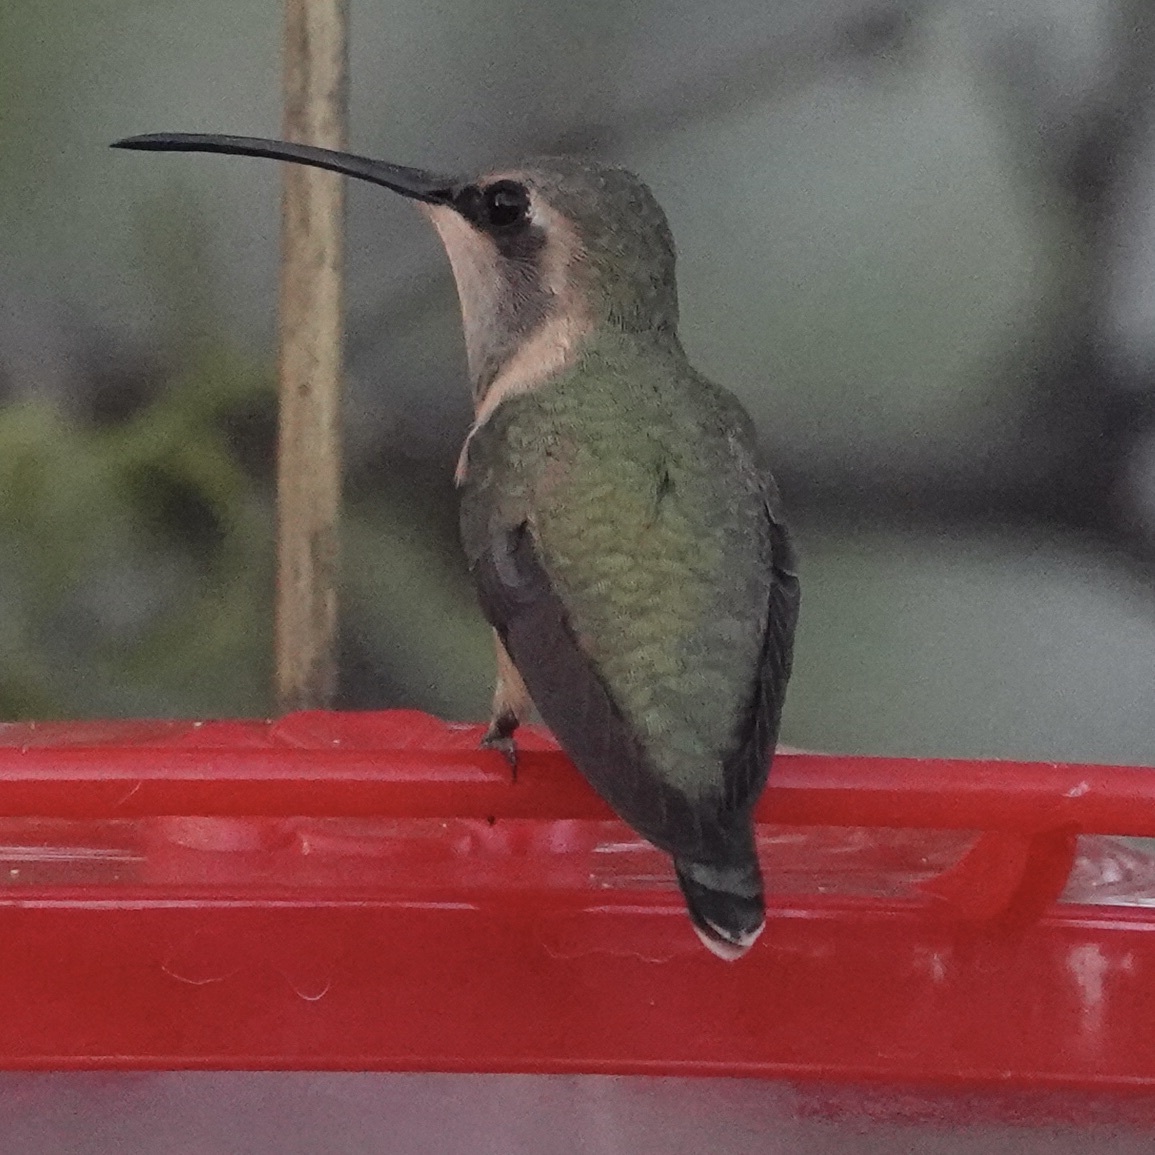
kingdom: Animalia
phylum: Chordata
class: Aves
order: Apodiformes
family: Trochilidae
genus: Calothorax
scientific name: Calothorax lucifer
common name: Lucifer sheartail
